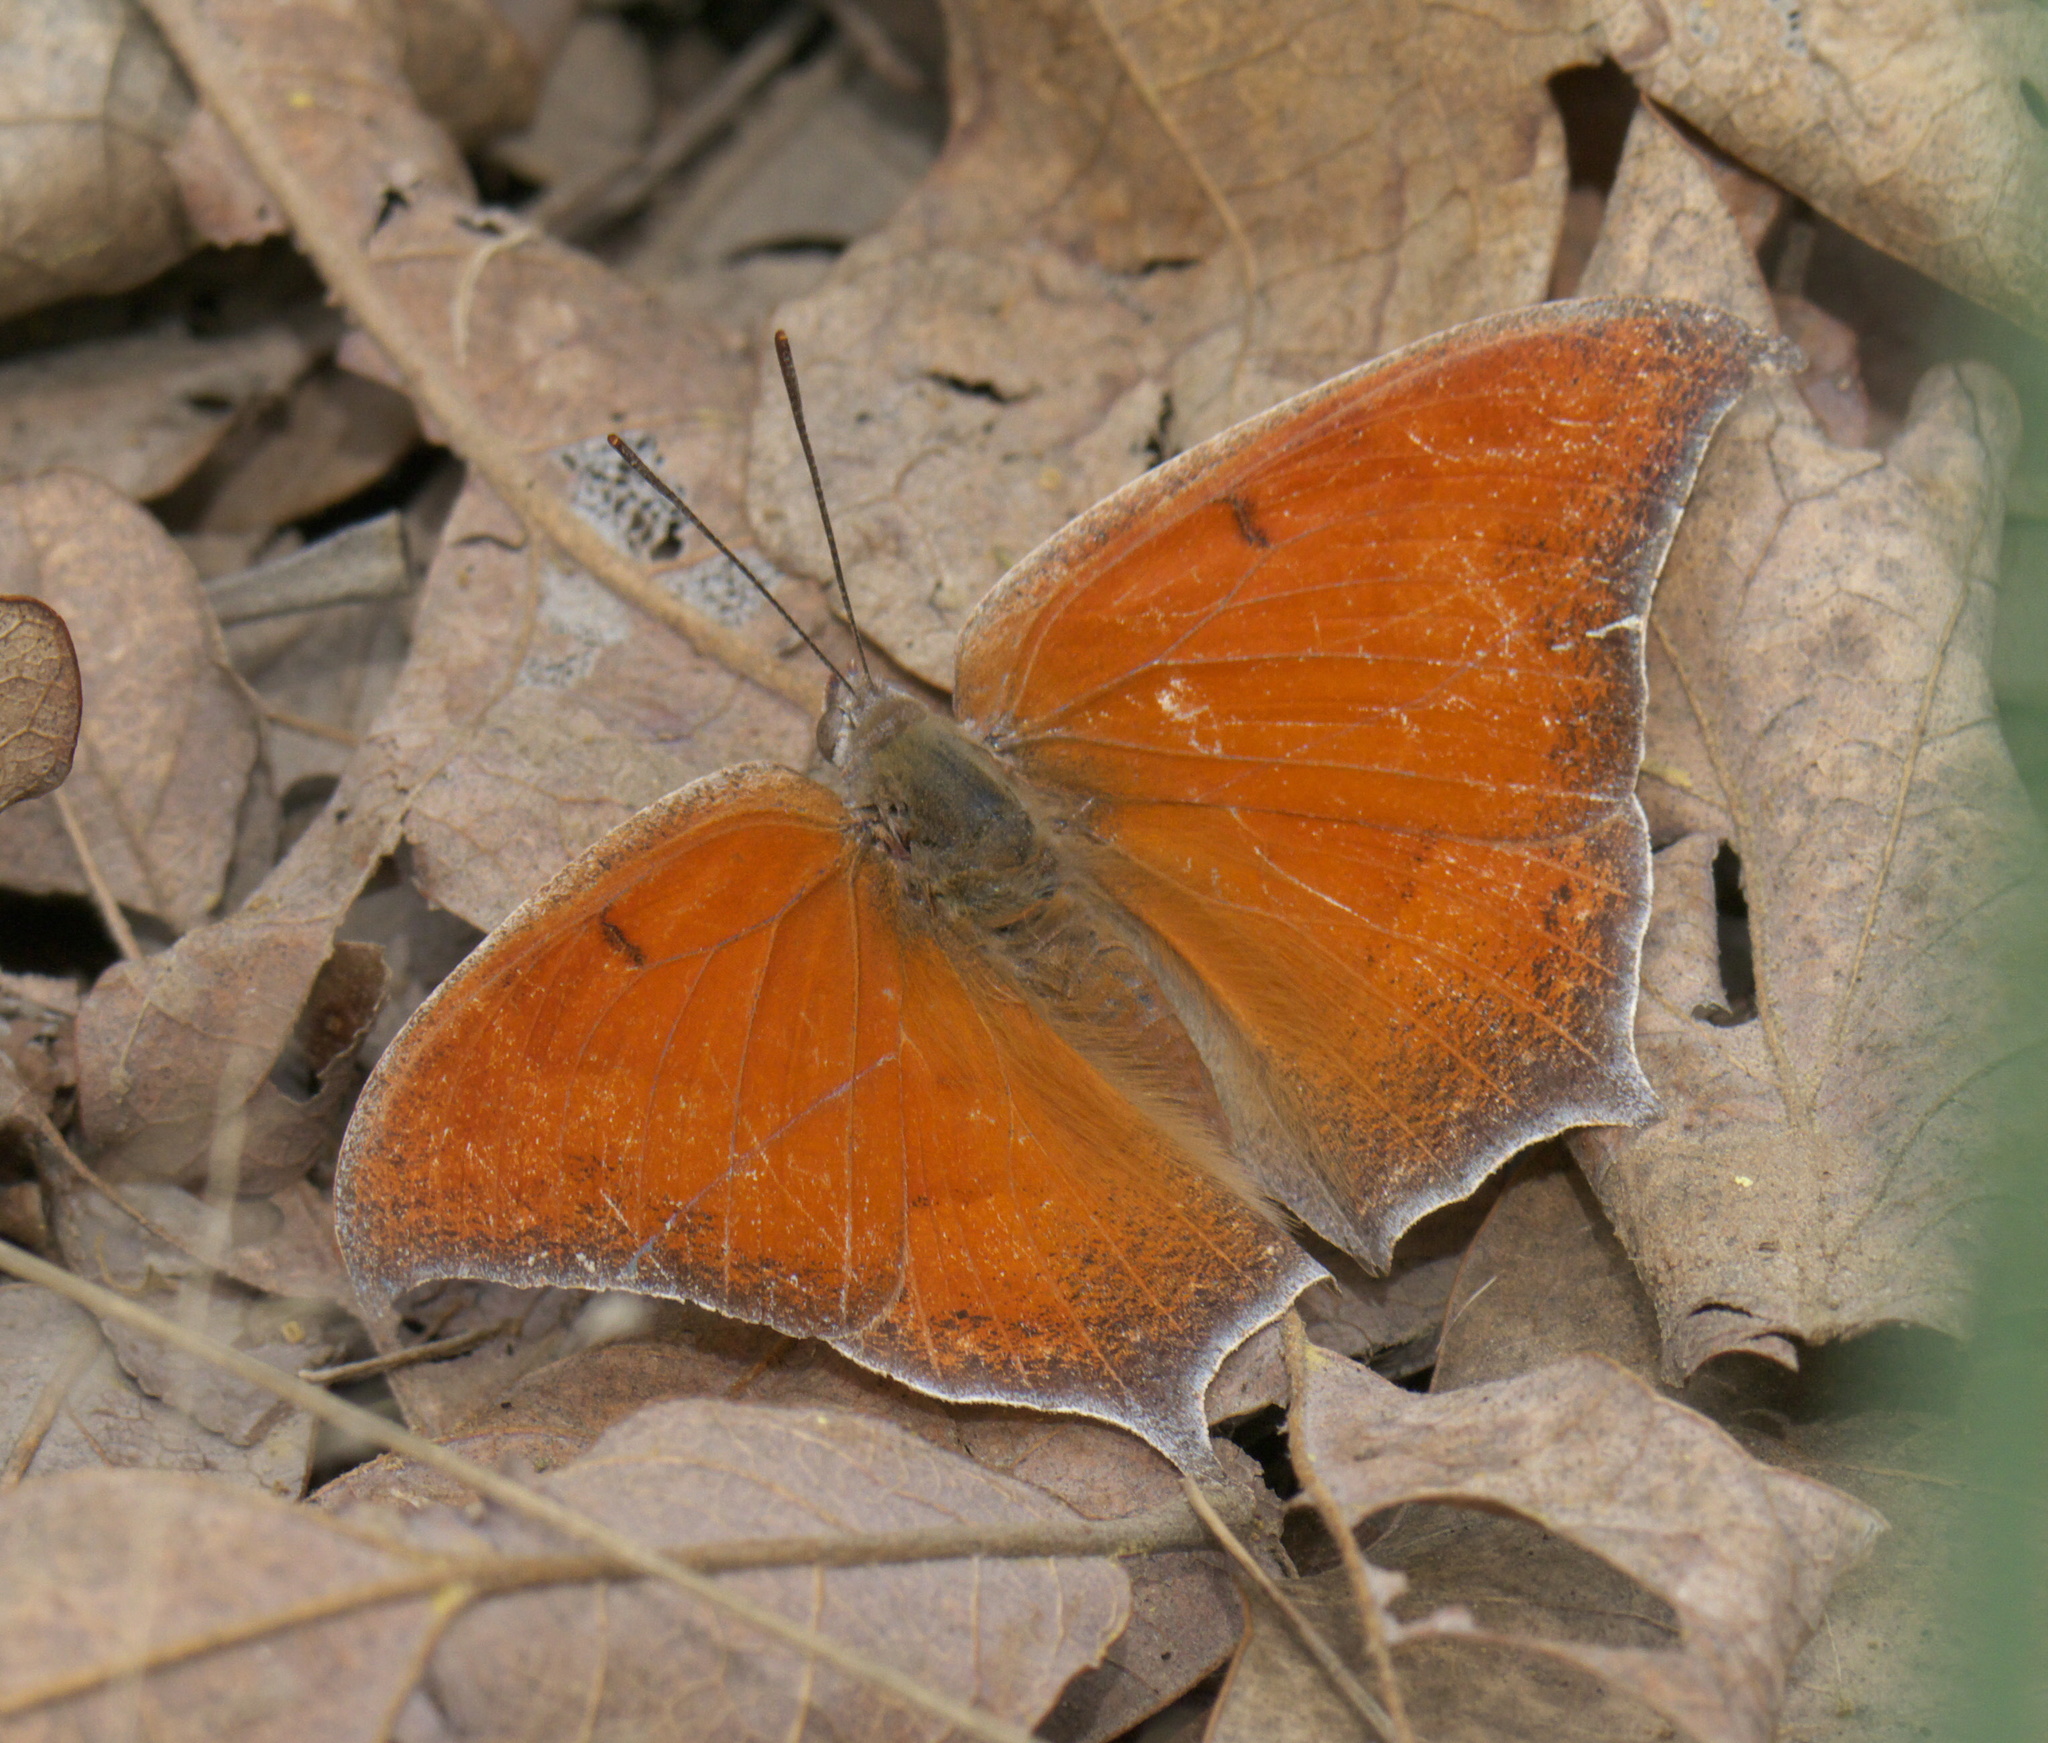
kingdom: Animalia
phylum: Arthropoda
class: Insecta
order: Lepidoptera
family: Nymphalidae
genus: Anaea
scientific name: Anaea andria
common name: Goatweed leafwing
